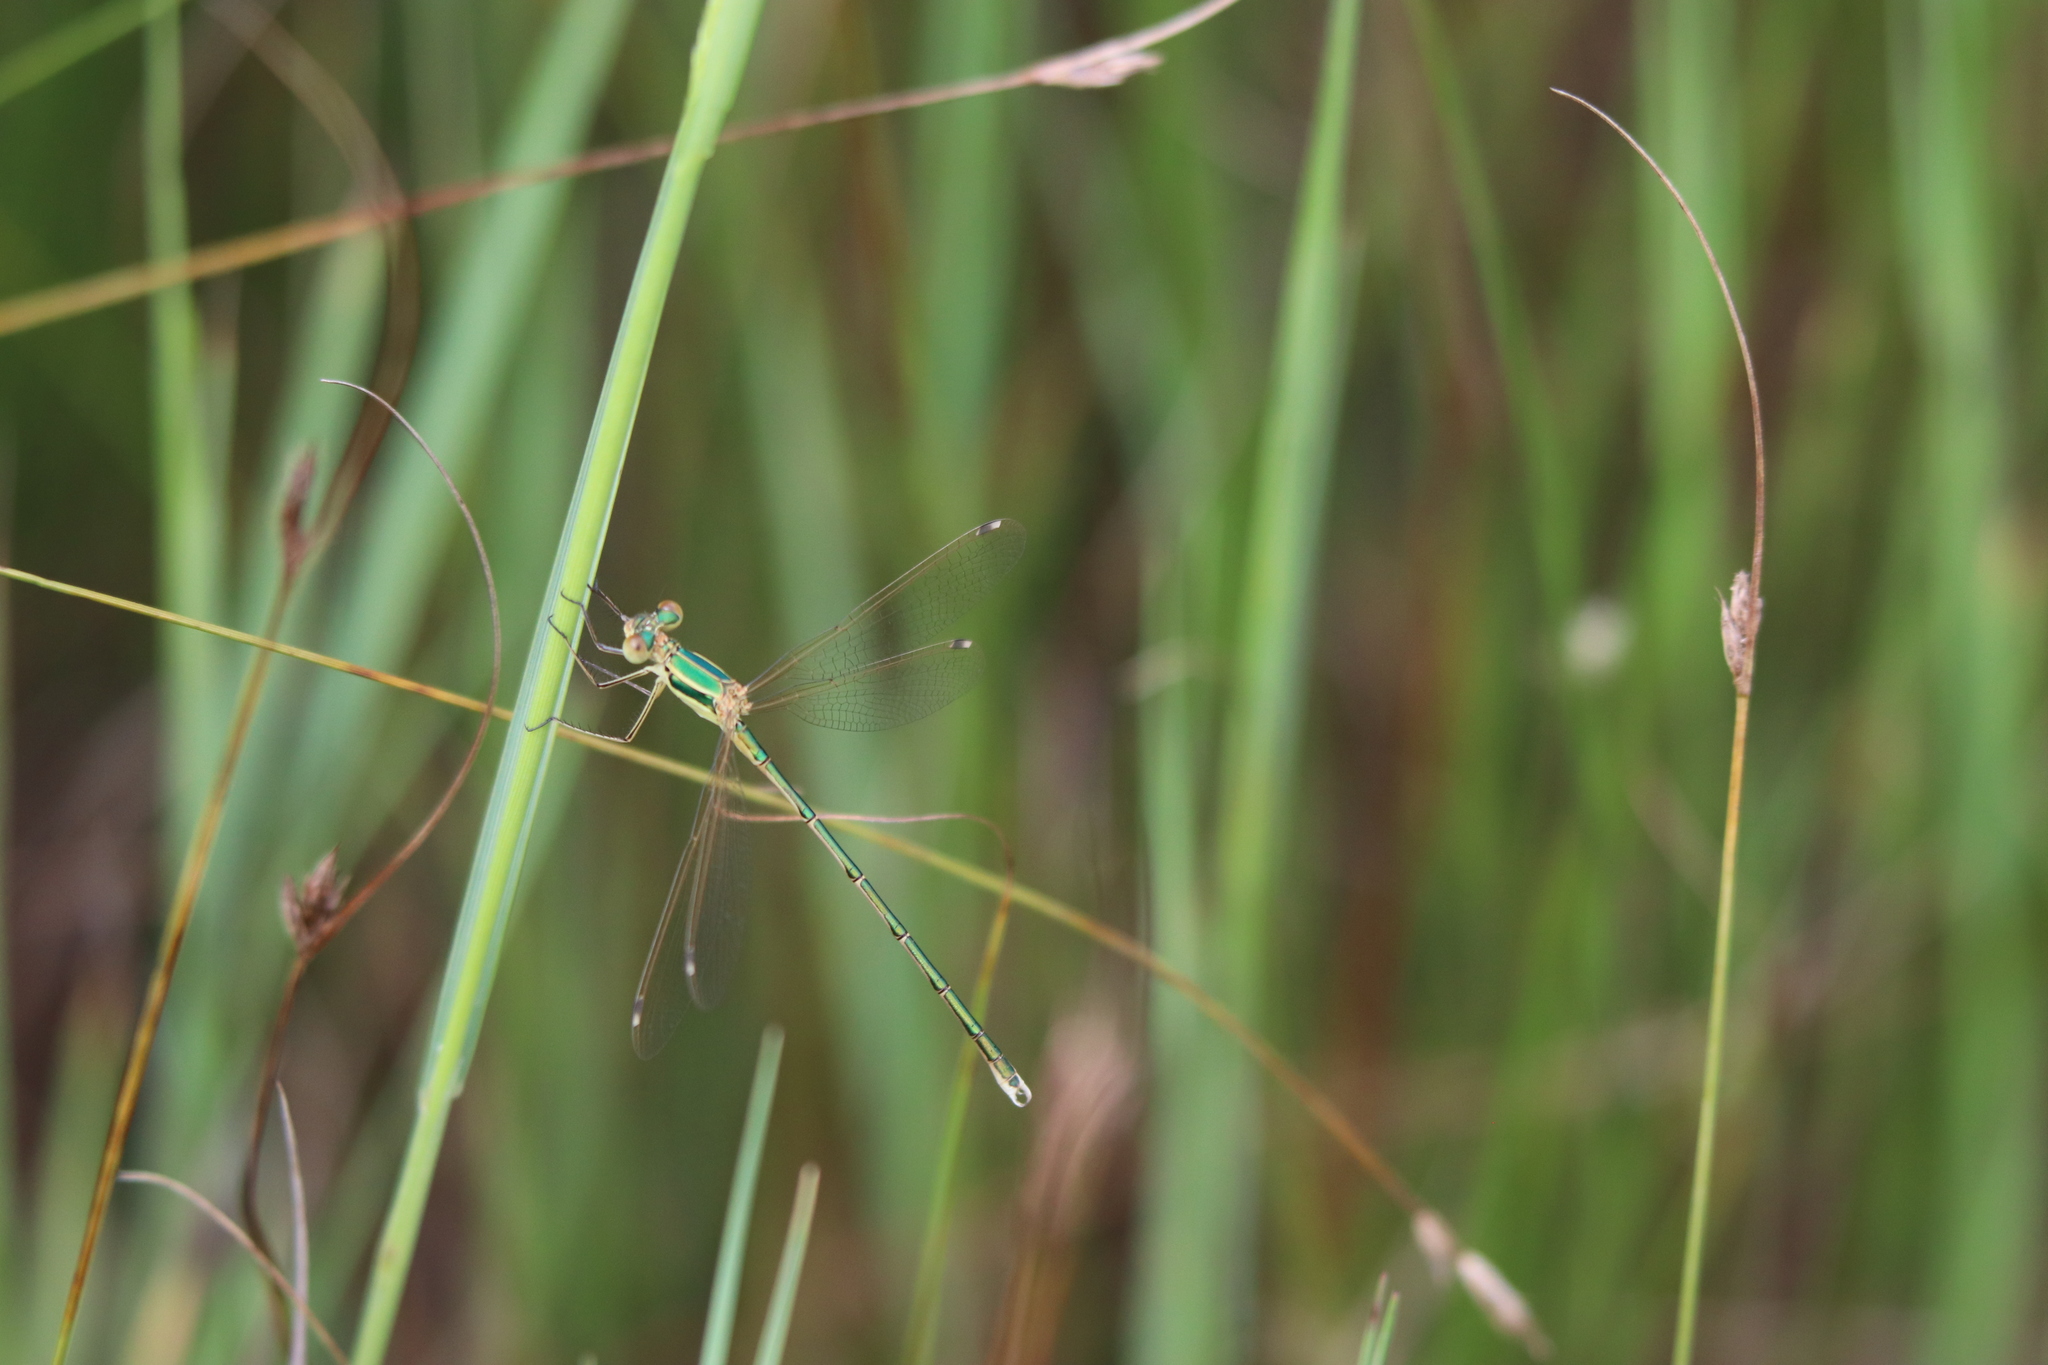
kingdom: Animalia
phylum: Arthropoda
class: Insecta
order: Odonata
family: Lestidae
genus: Lestes
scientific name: Lestes barbarus
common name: Migrant spreadwing
